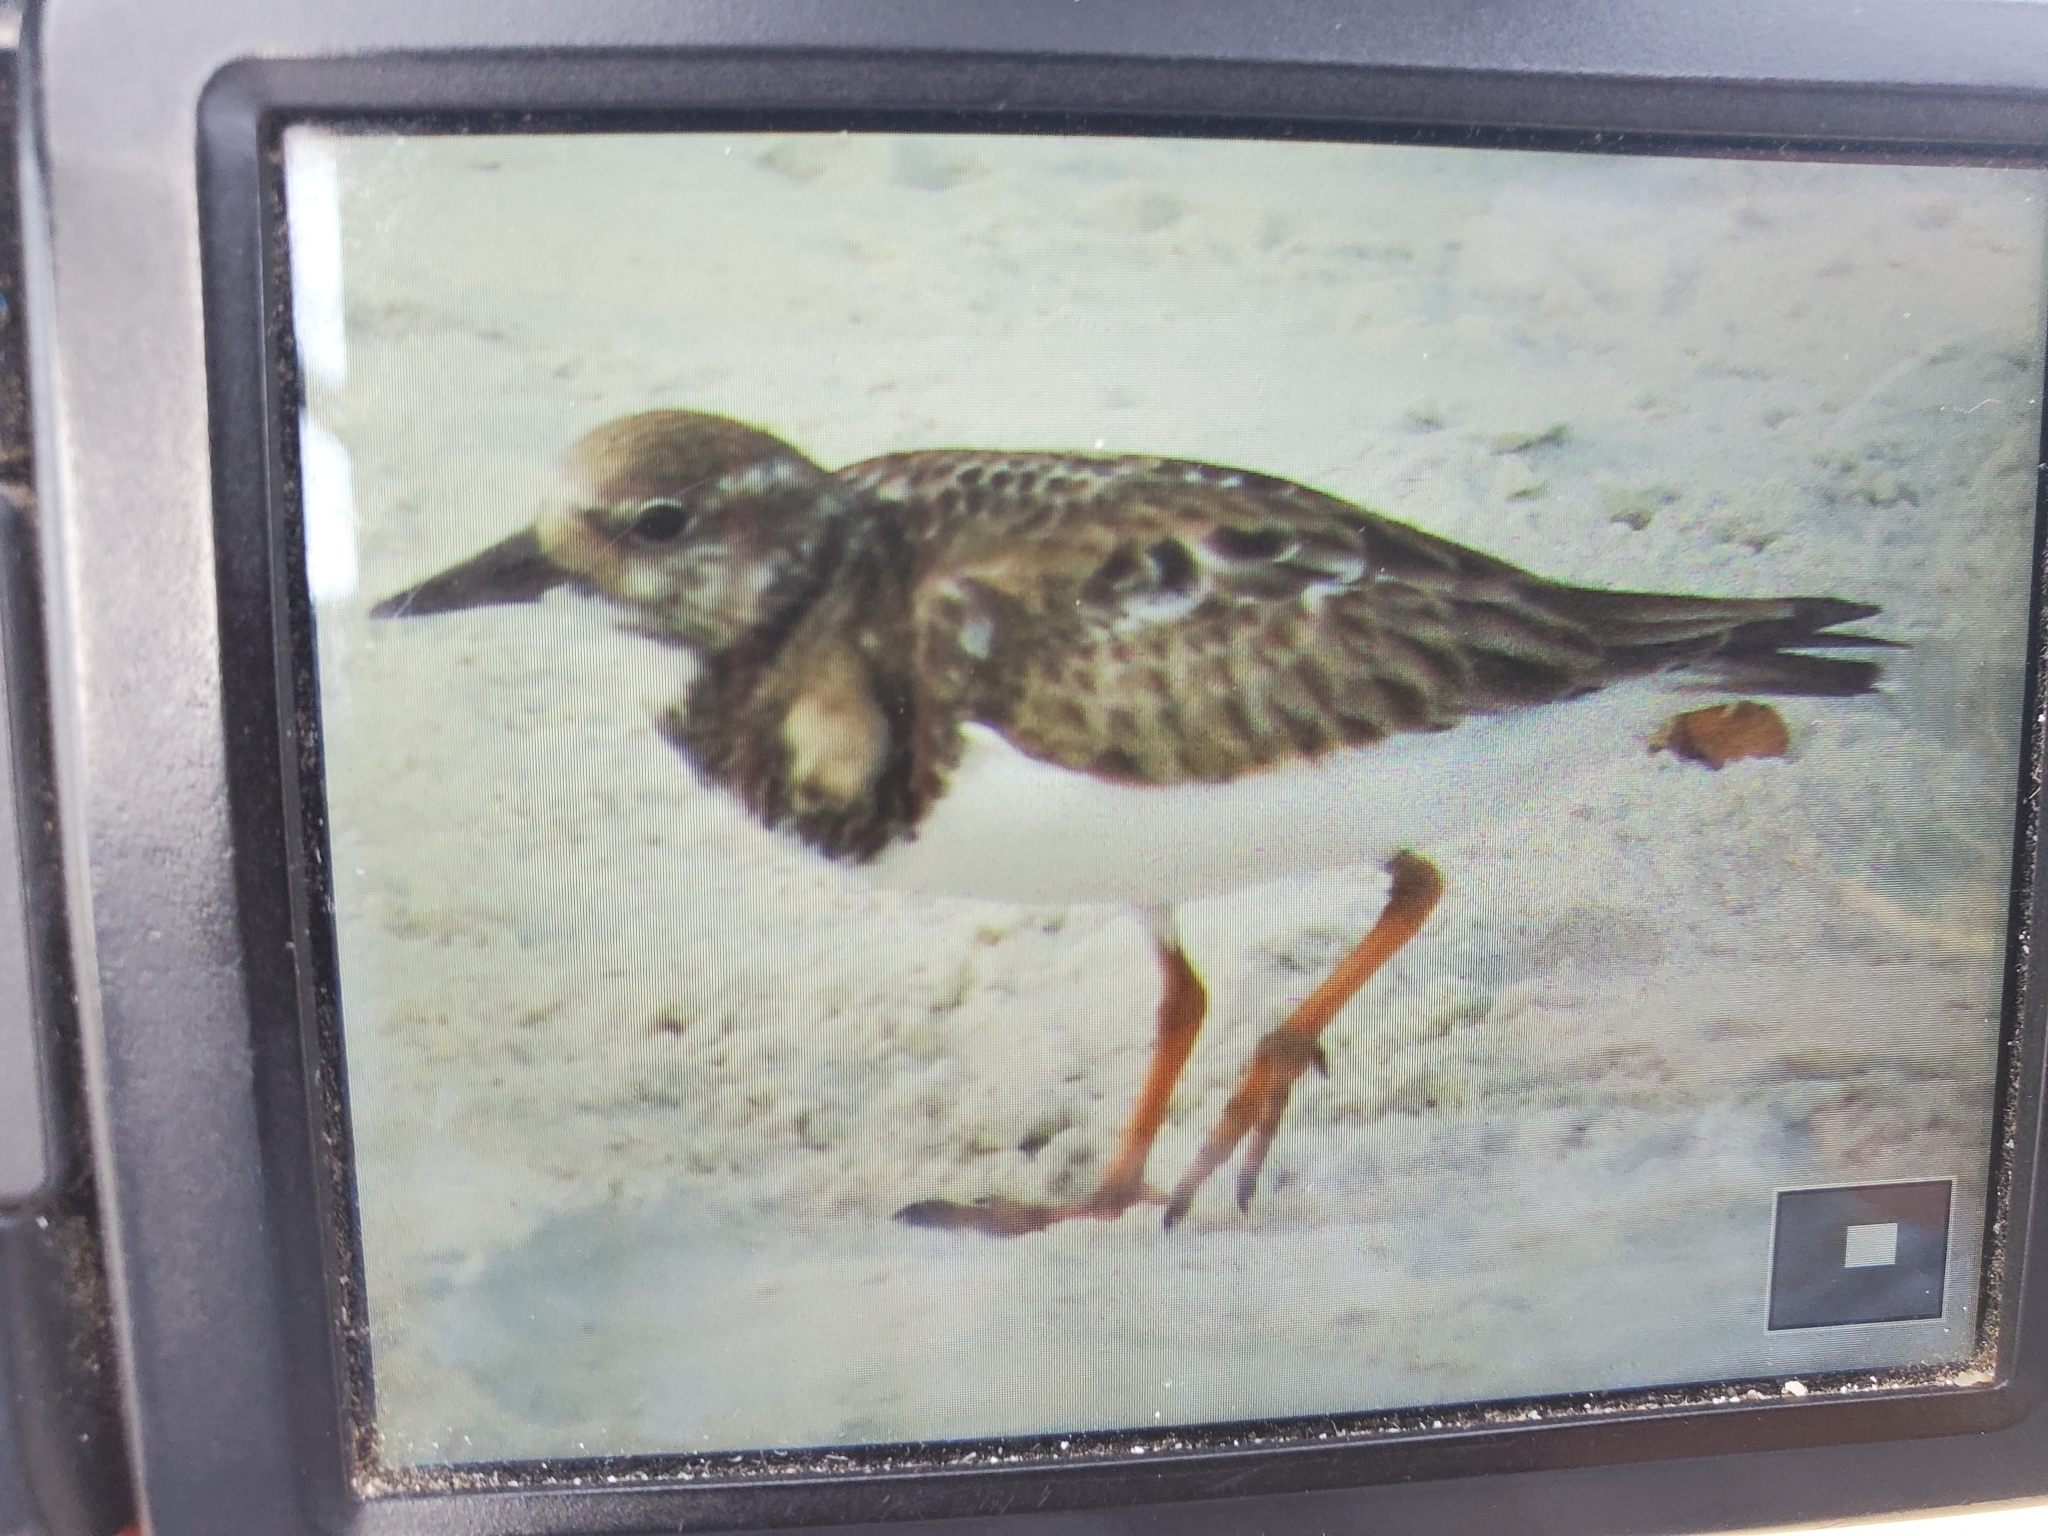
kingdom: Animalia
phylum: Chordata
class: Aves
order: Charadriiformes
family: Scolopacidae
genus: Arenaria
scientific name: Arenaria interpres
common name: Ruddy turnstone
